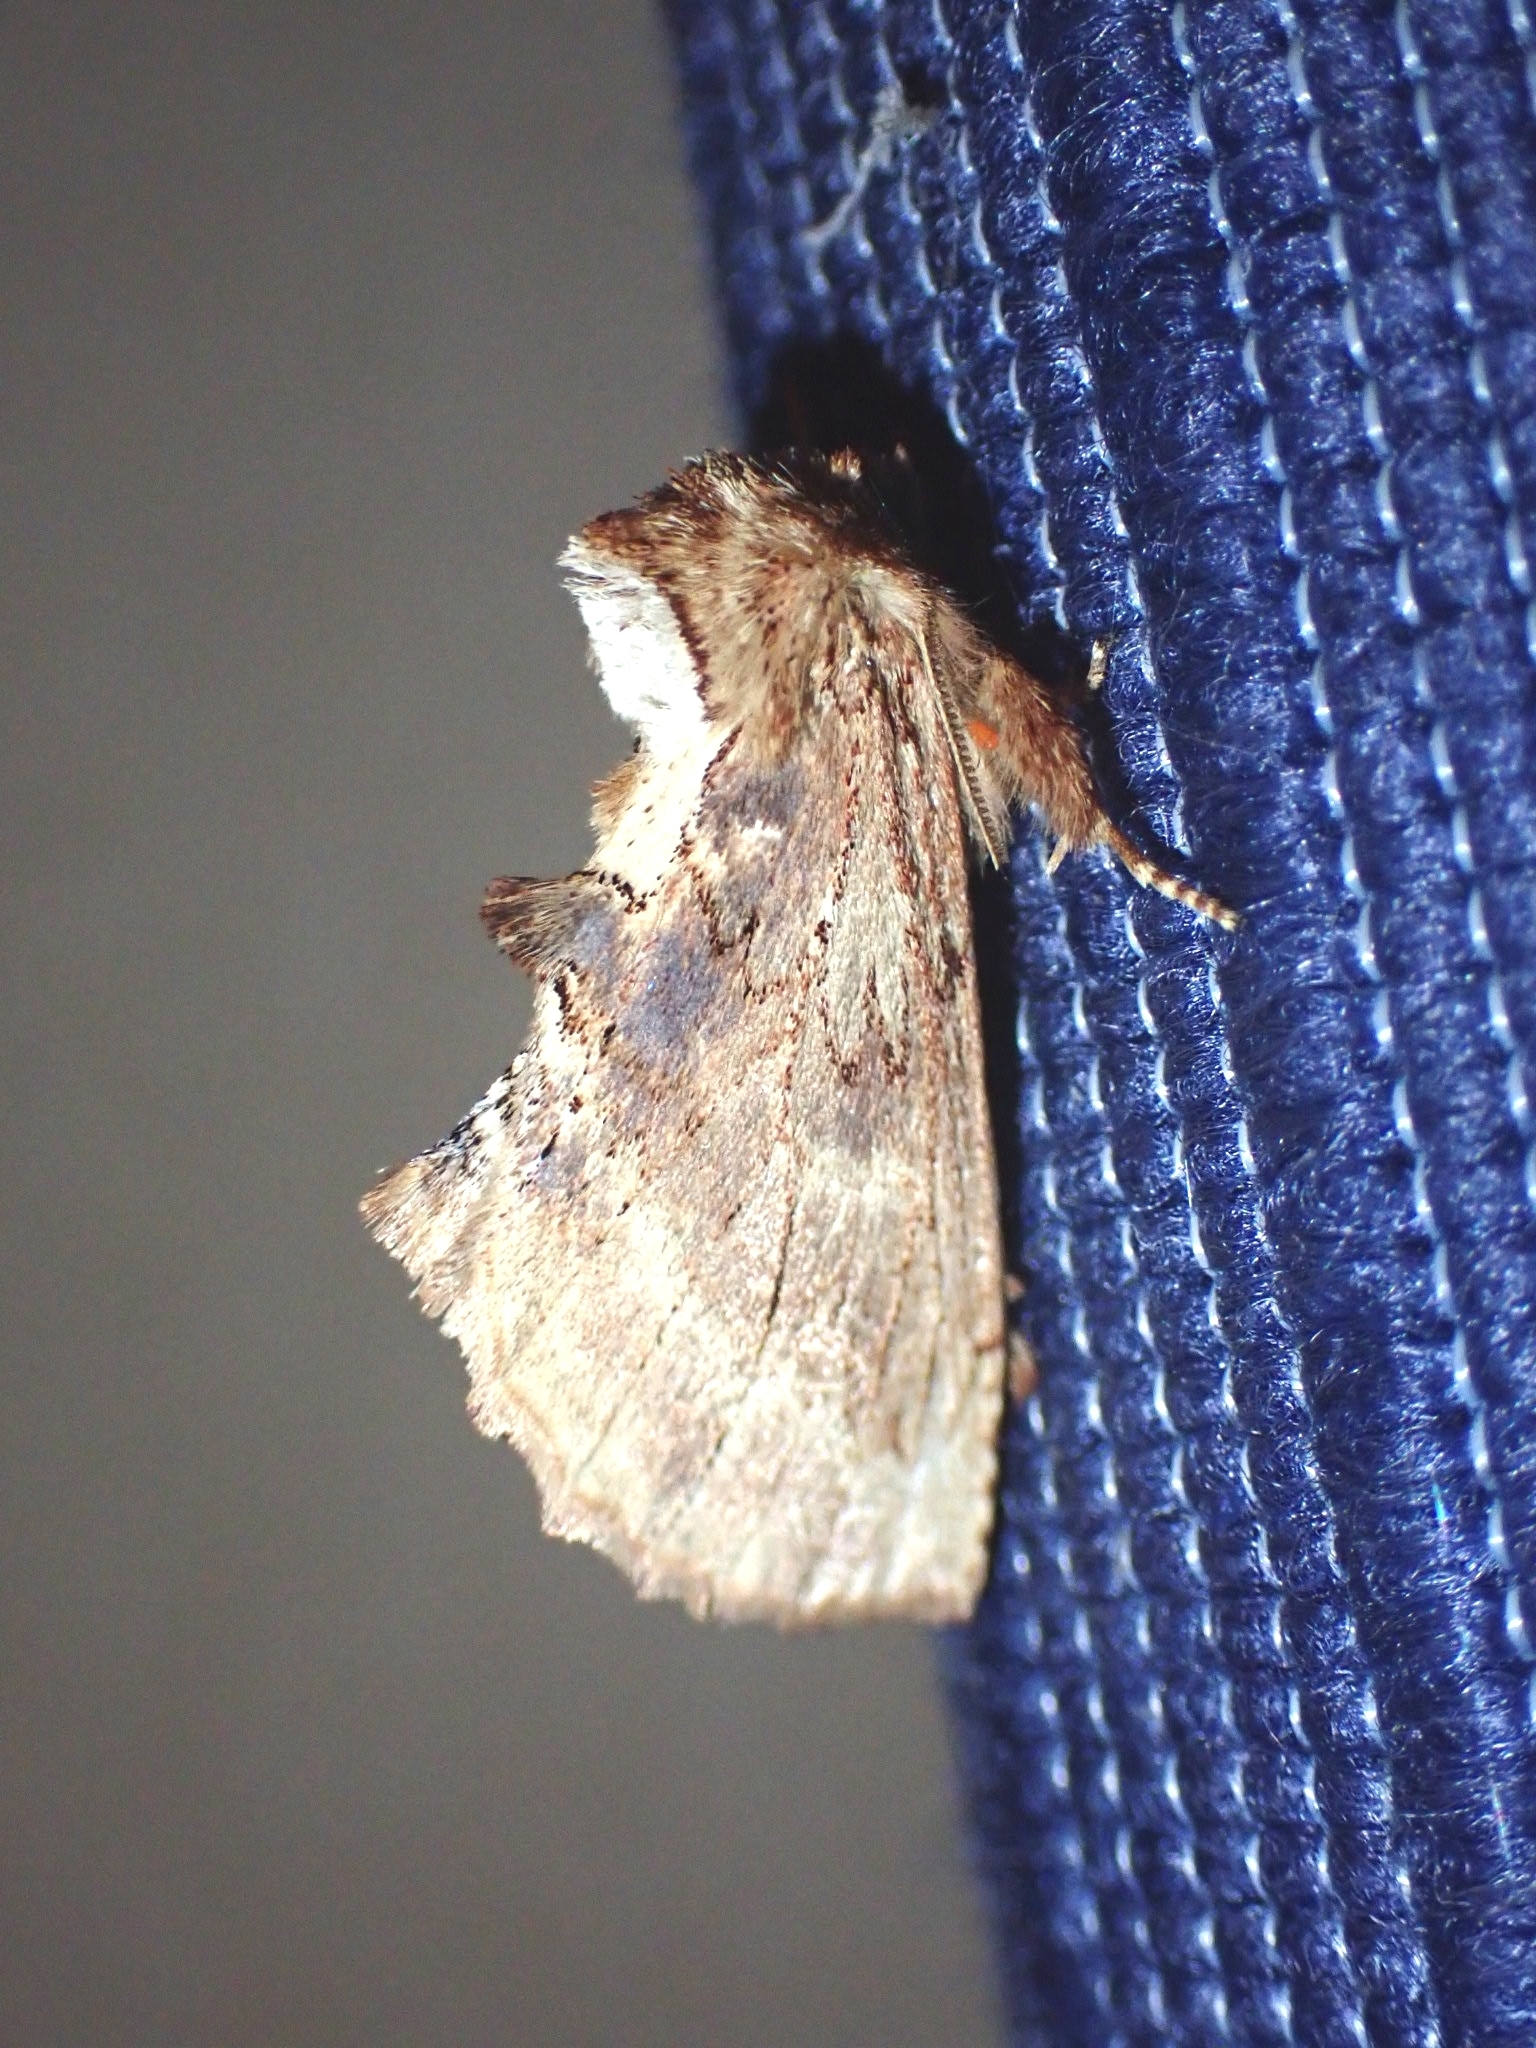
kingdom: Animalia
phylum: Arthropoda
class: Insecta
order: Lepidoptera
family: Notodontidae
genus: Ptilodon
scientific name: Ptilodon capucina
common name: Coxcomb prominent
